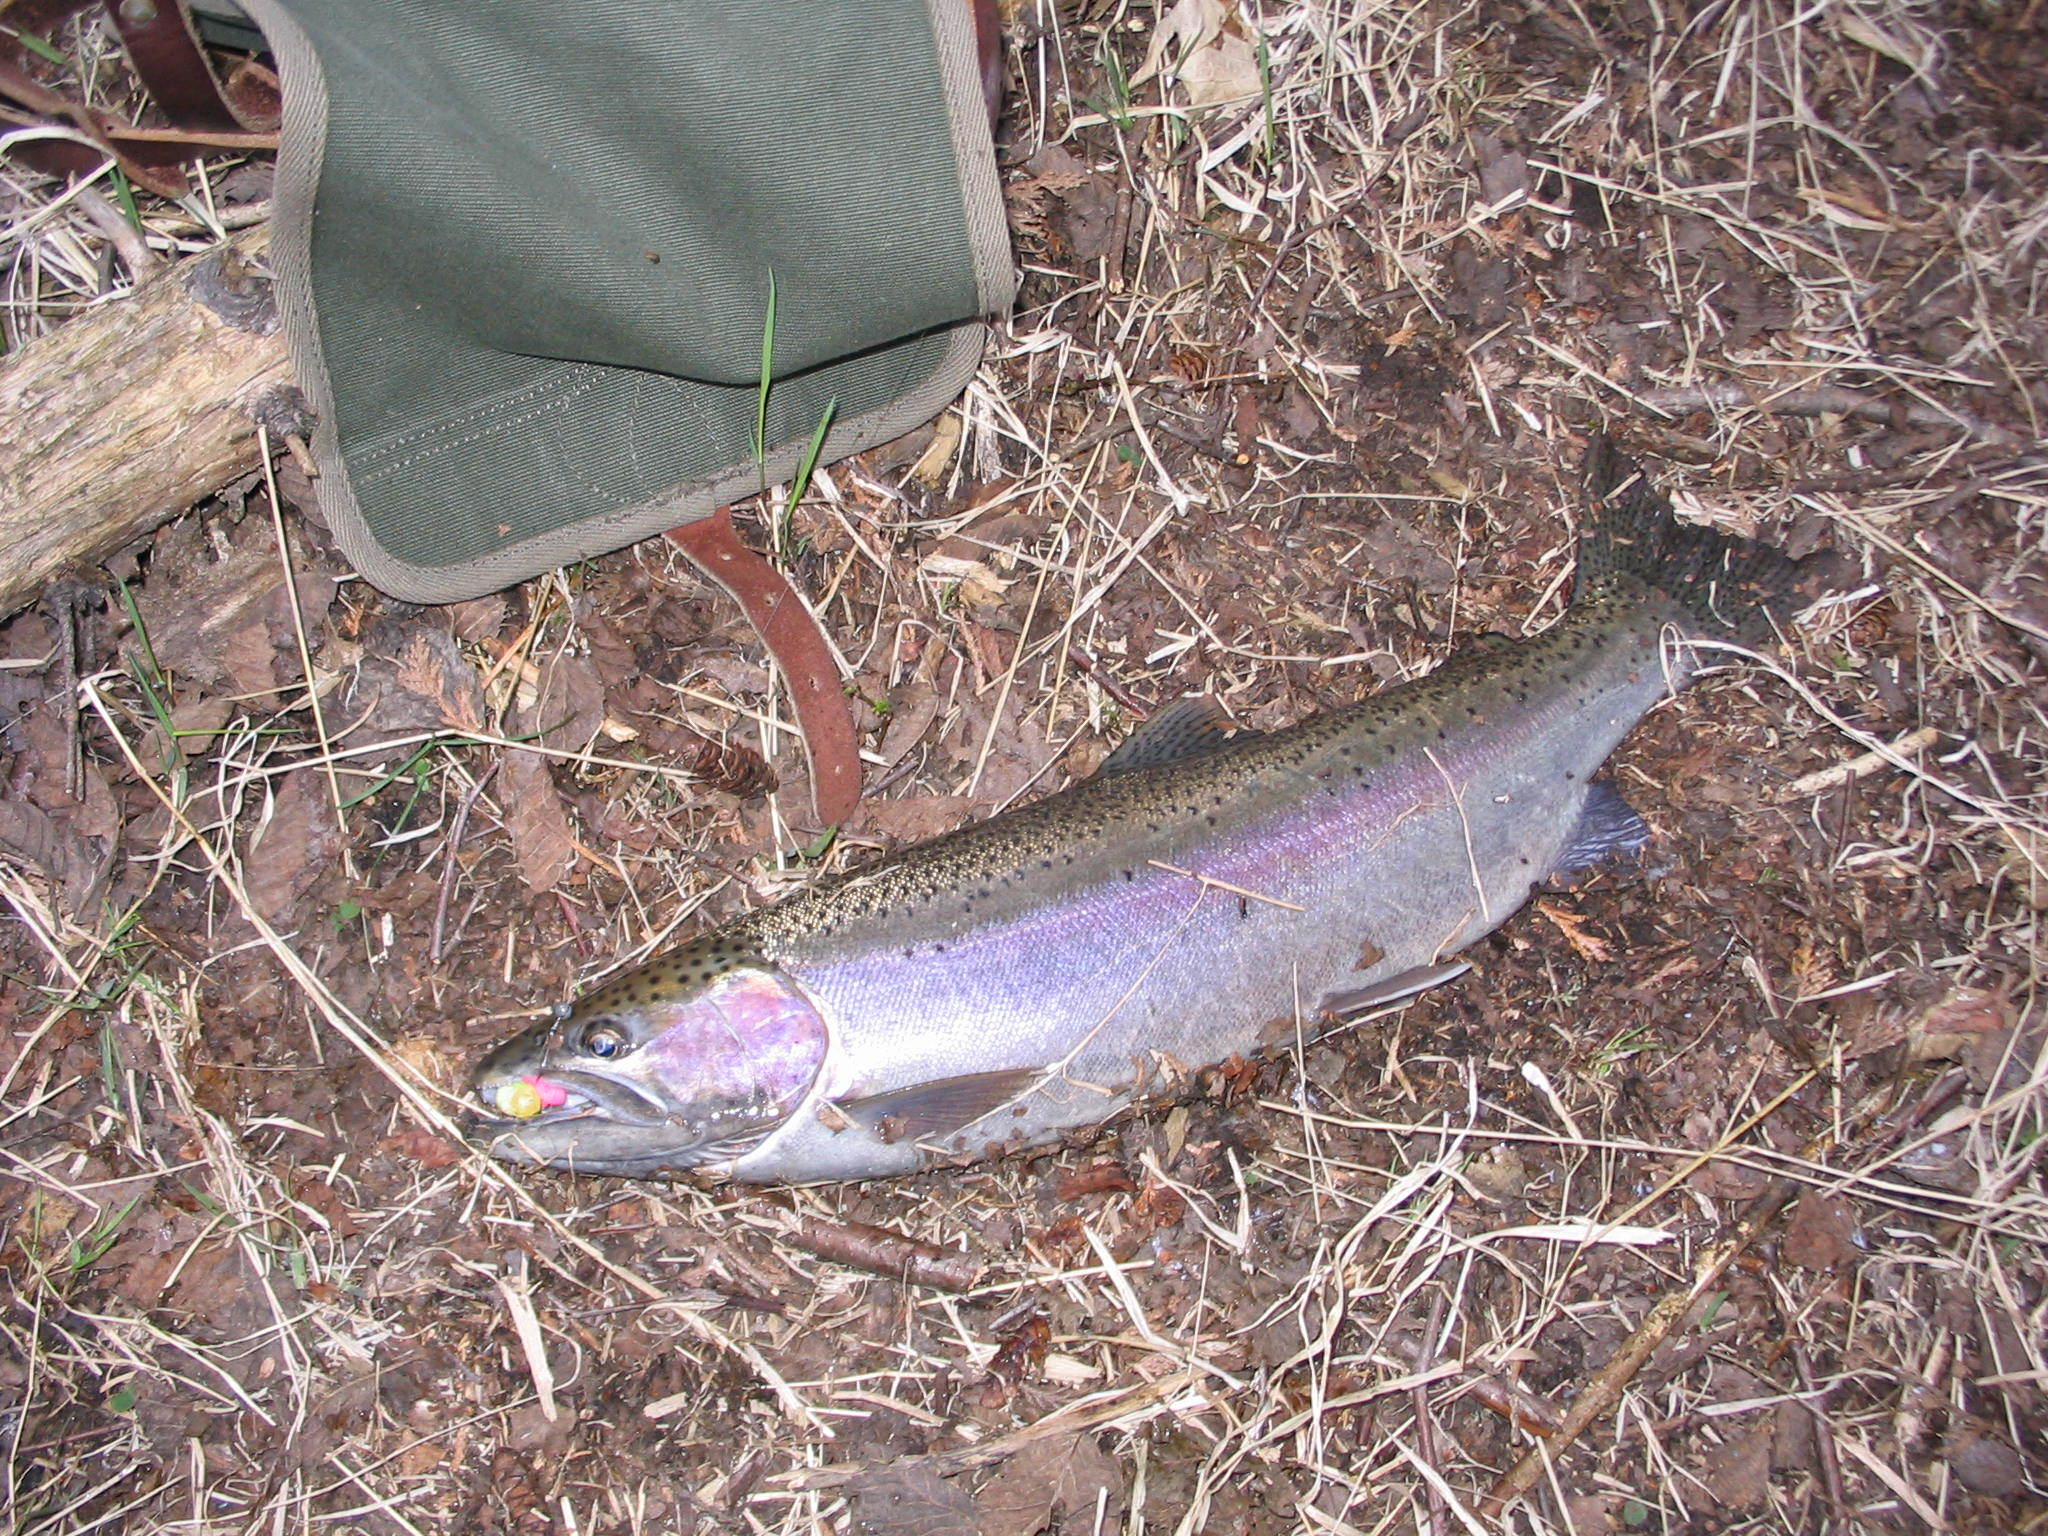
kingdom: Animalia
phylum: Chordata
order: Salmoniformes
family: Salmonidae
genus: Oncorhynchus
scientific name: Oncorhynchus mykiss
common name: Rainbow trout
